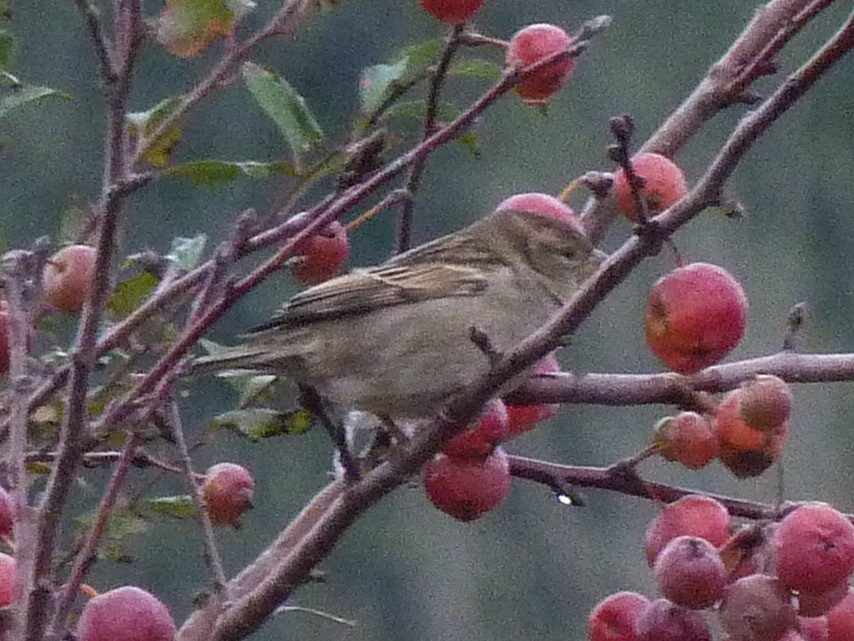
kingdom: Animalia
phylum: Chordata
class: Aves
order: Passeriformes
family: Passeridae
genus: Passer
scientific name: Passer domesticus
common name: House sparrow
